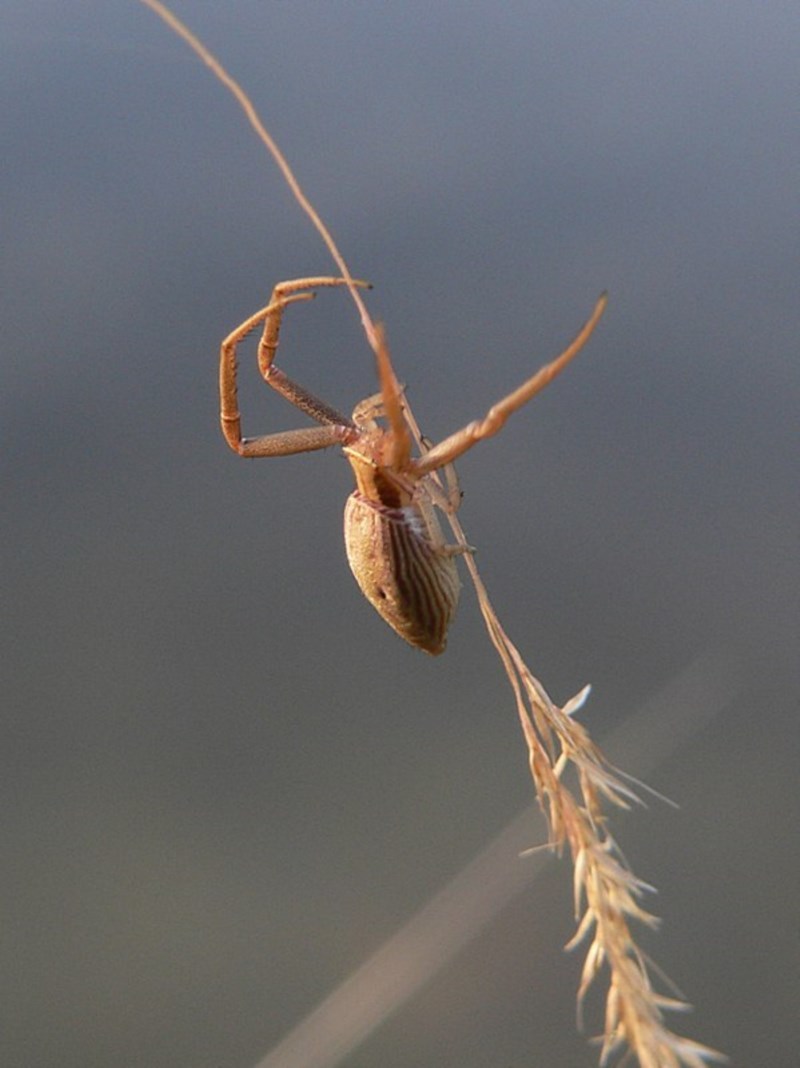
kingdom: Animalia
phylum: Arthropoda
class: Arachnida
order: Araneae
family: Thomisidae
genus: Runcinia
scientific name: Runcinia acuminata
